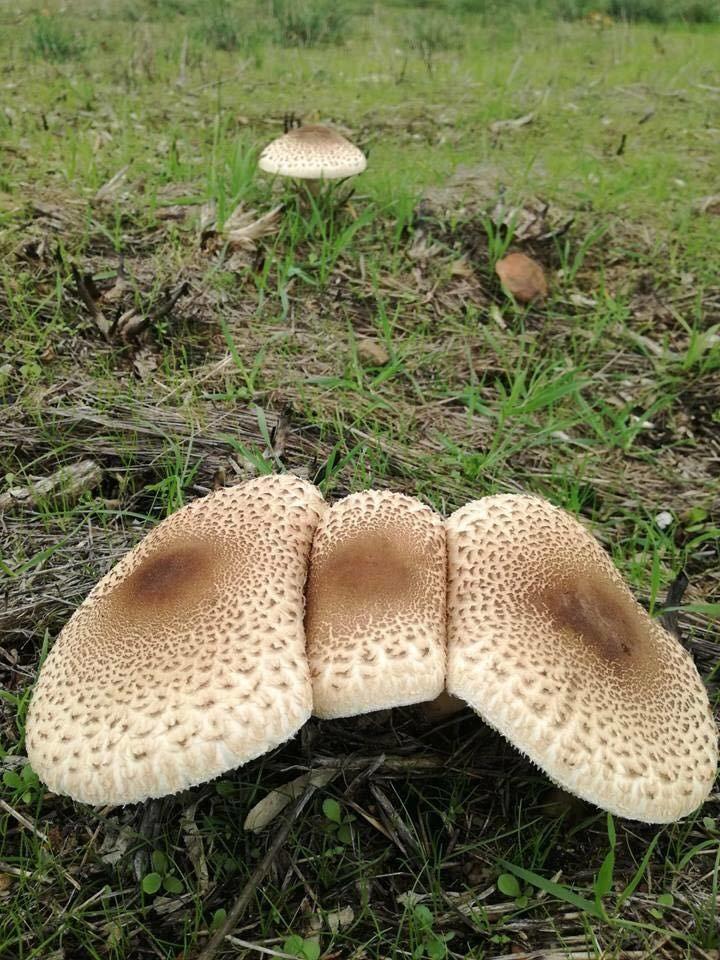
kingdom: Fungi
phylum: Basidiomycota
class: Agaricomycetes
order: Agaricales
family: Agaricaceae
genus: Lepiota
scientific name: Lepiota fuligineosquarrosa
